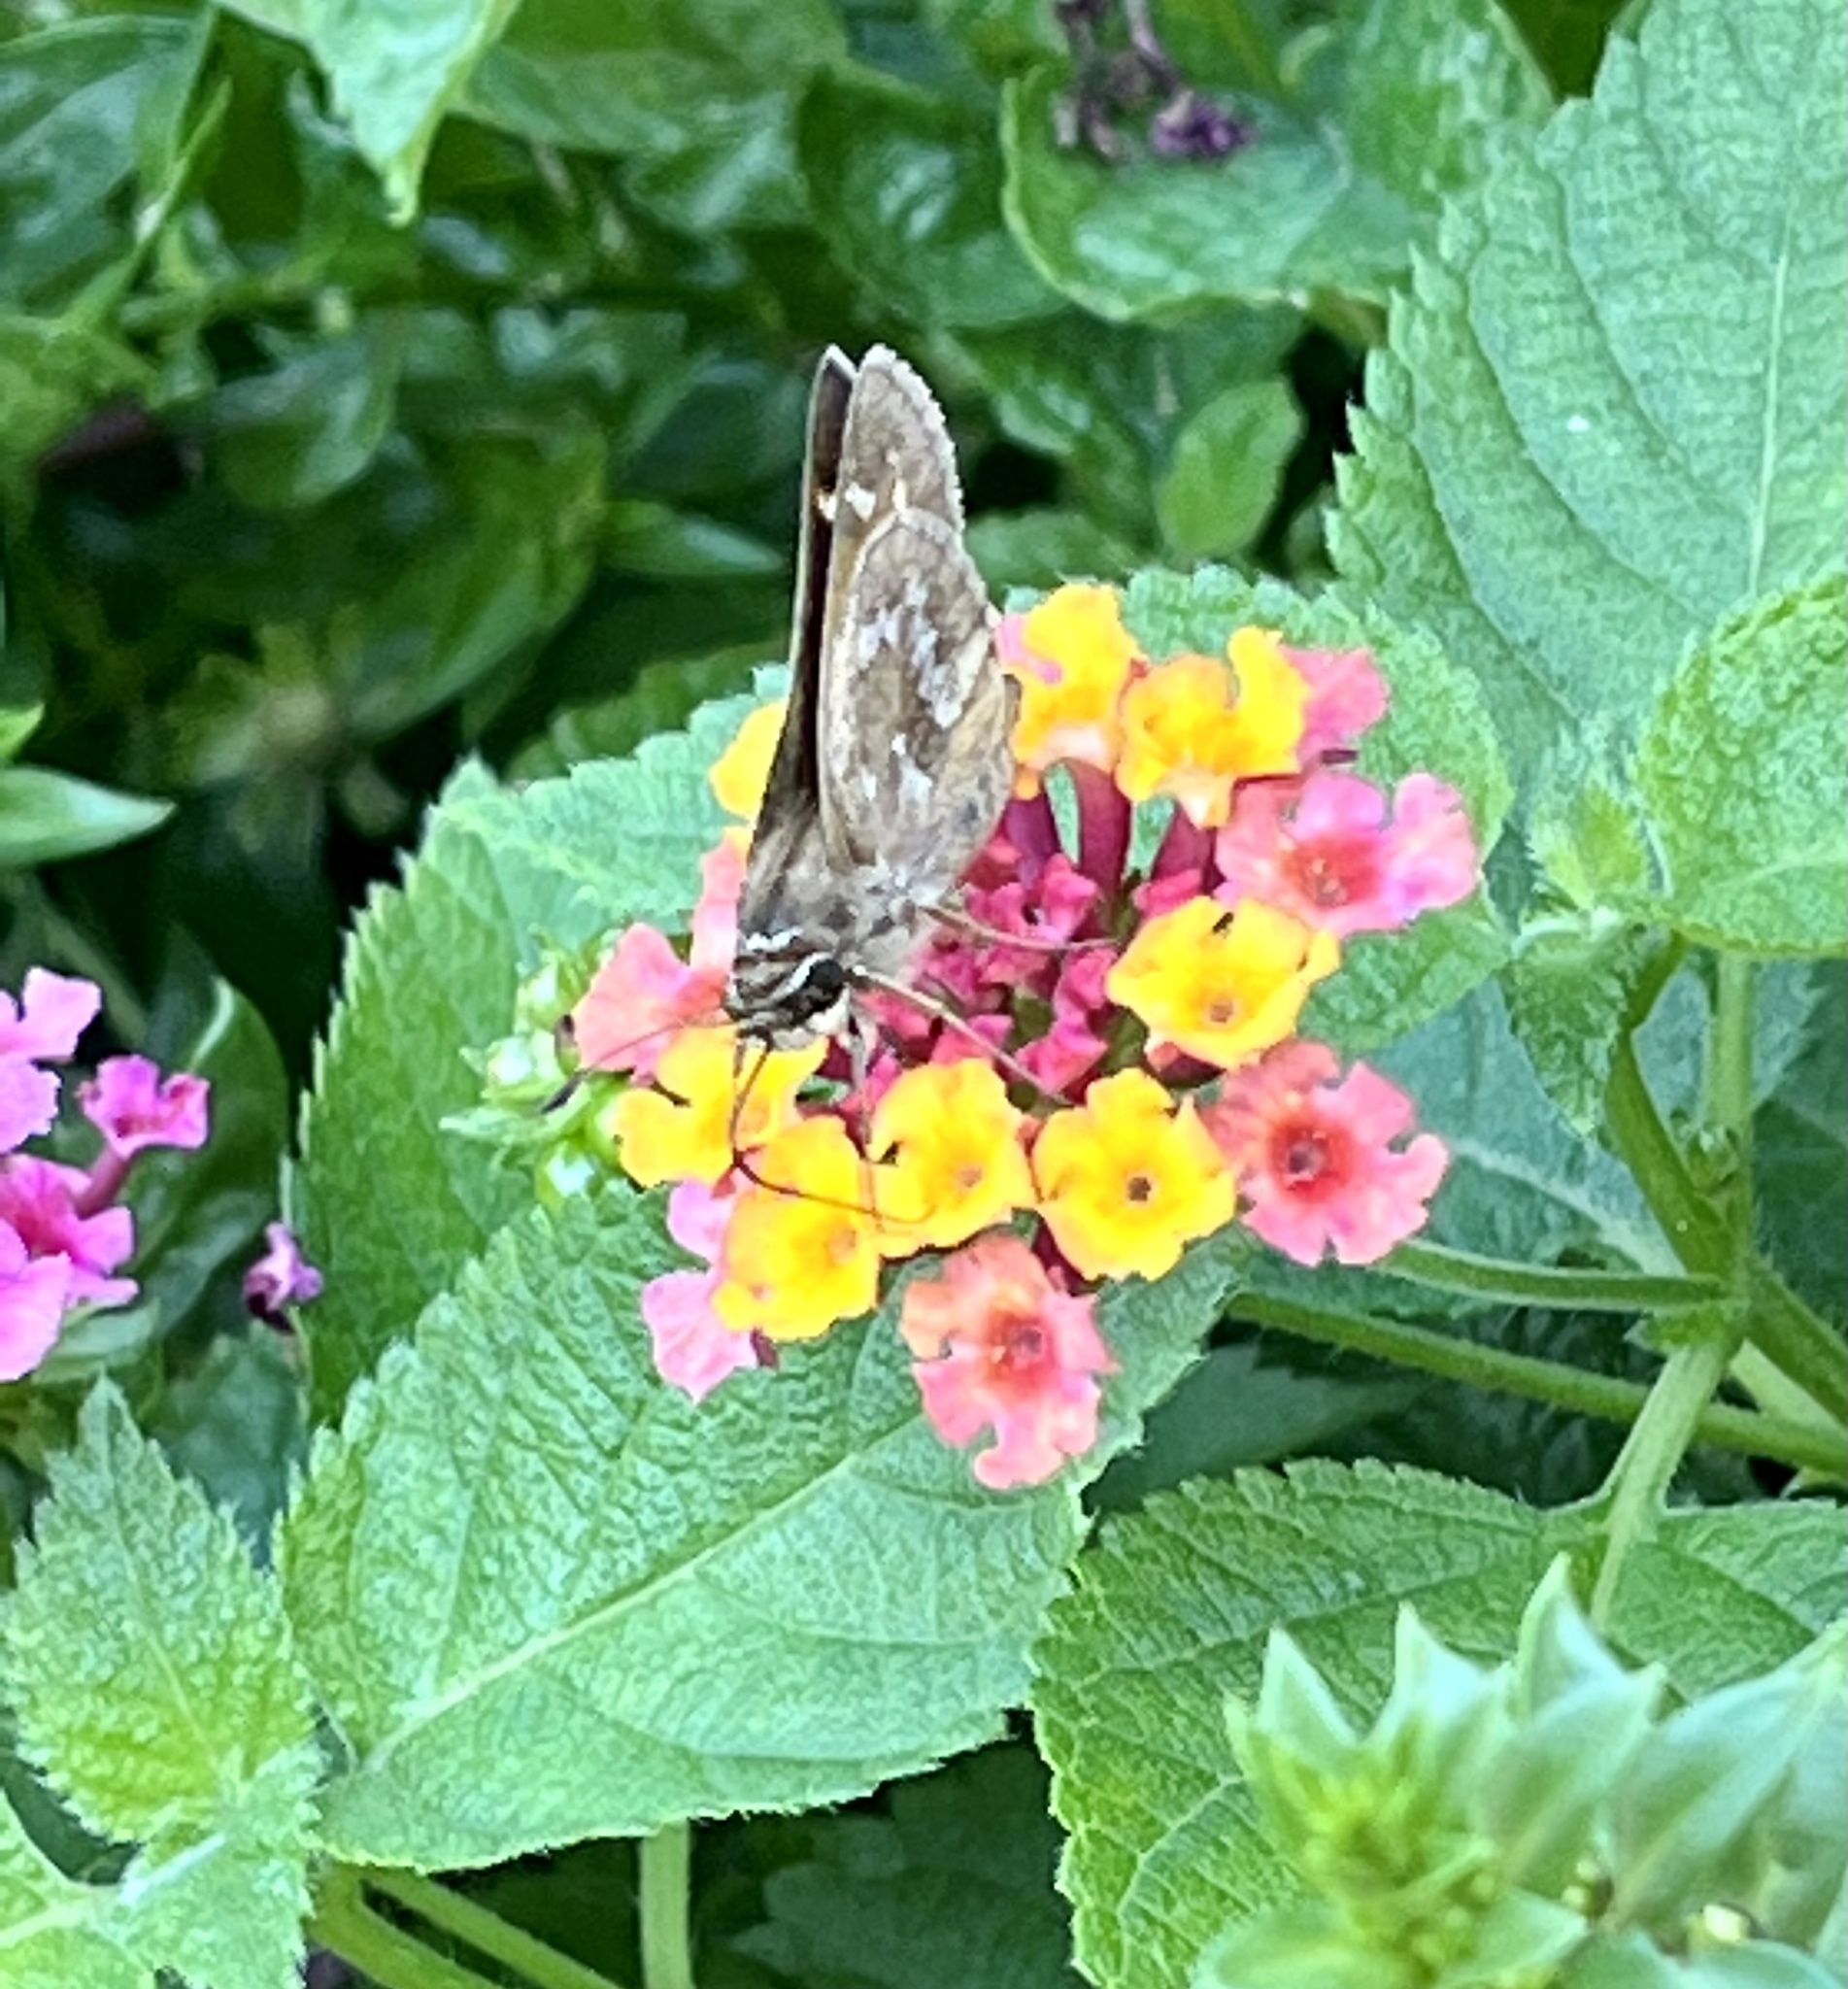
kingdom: Animalia
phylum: Arthropoda
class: Insecta
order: Lepidoptera
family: Hesperiidae
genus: Atalopedes
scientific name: Atalopedes
